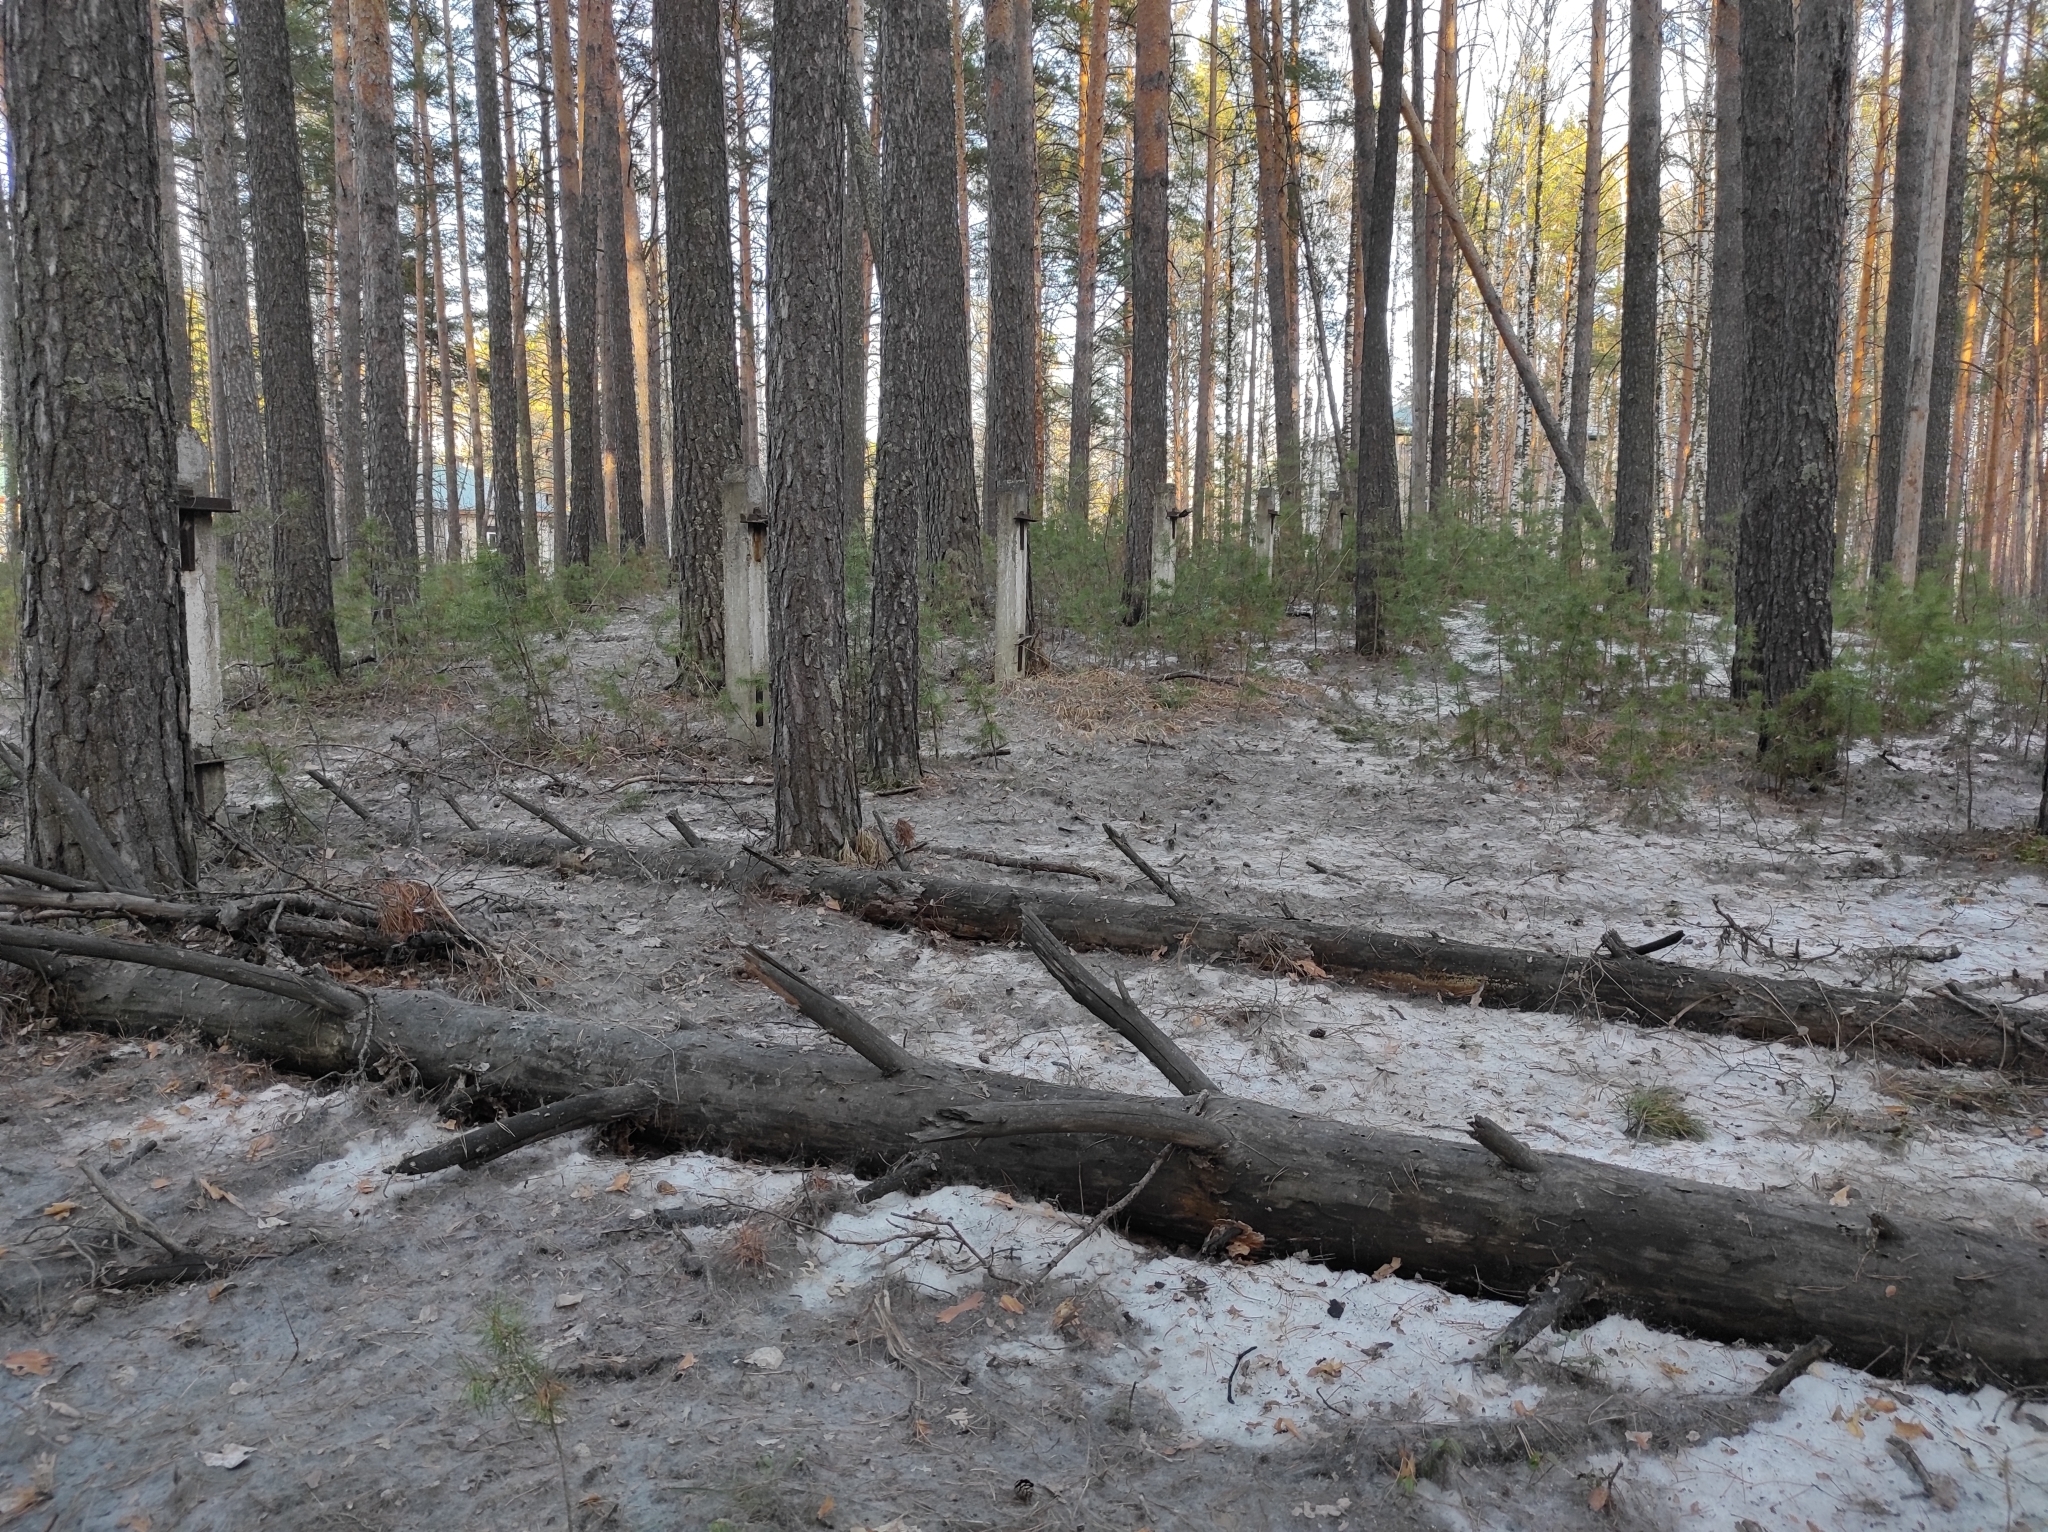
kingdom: Plantae
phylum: Tracheophyta
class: Magnoliopsida
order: Lamiales
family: Plantaginaceae
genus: Veronica
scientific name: Veronica spicata
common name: Spiked speedwell
